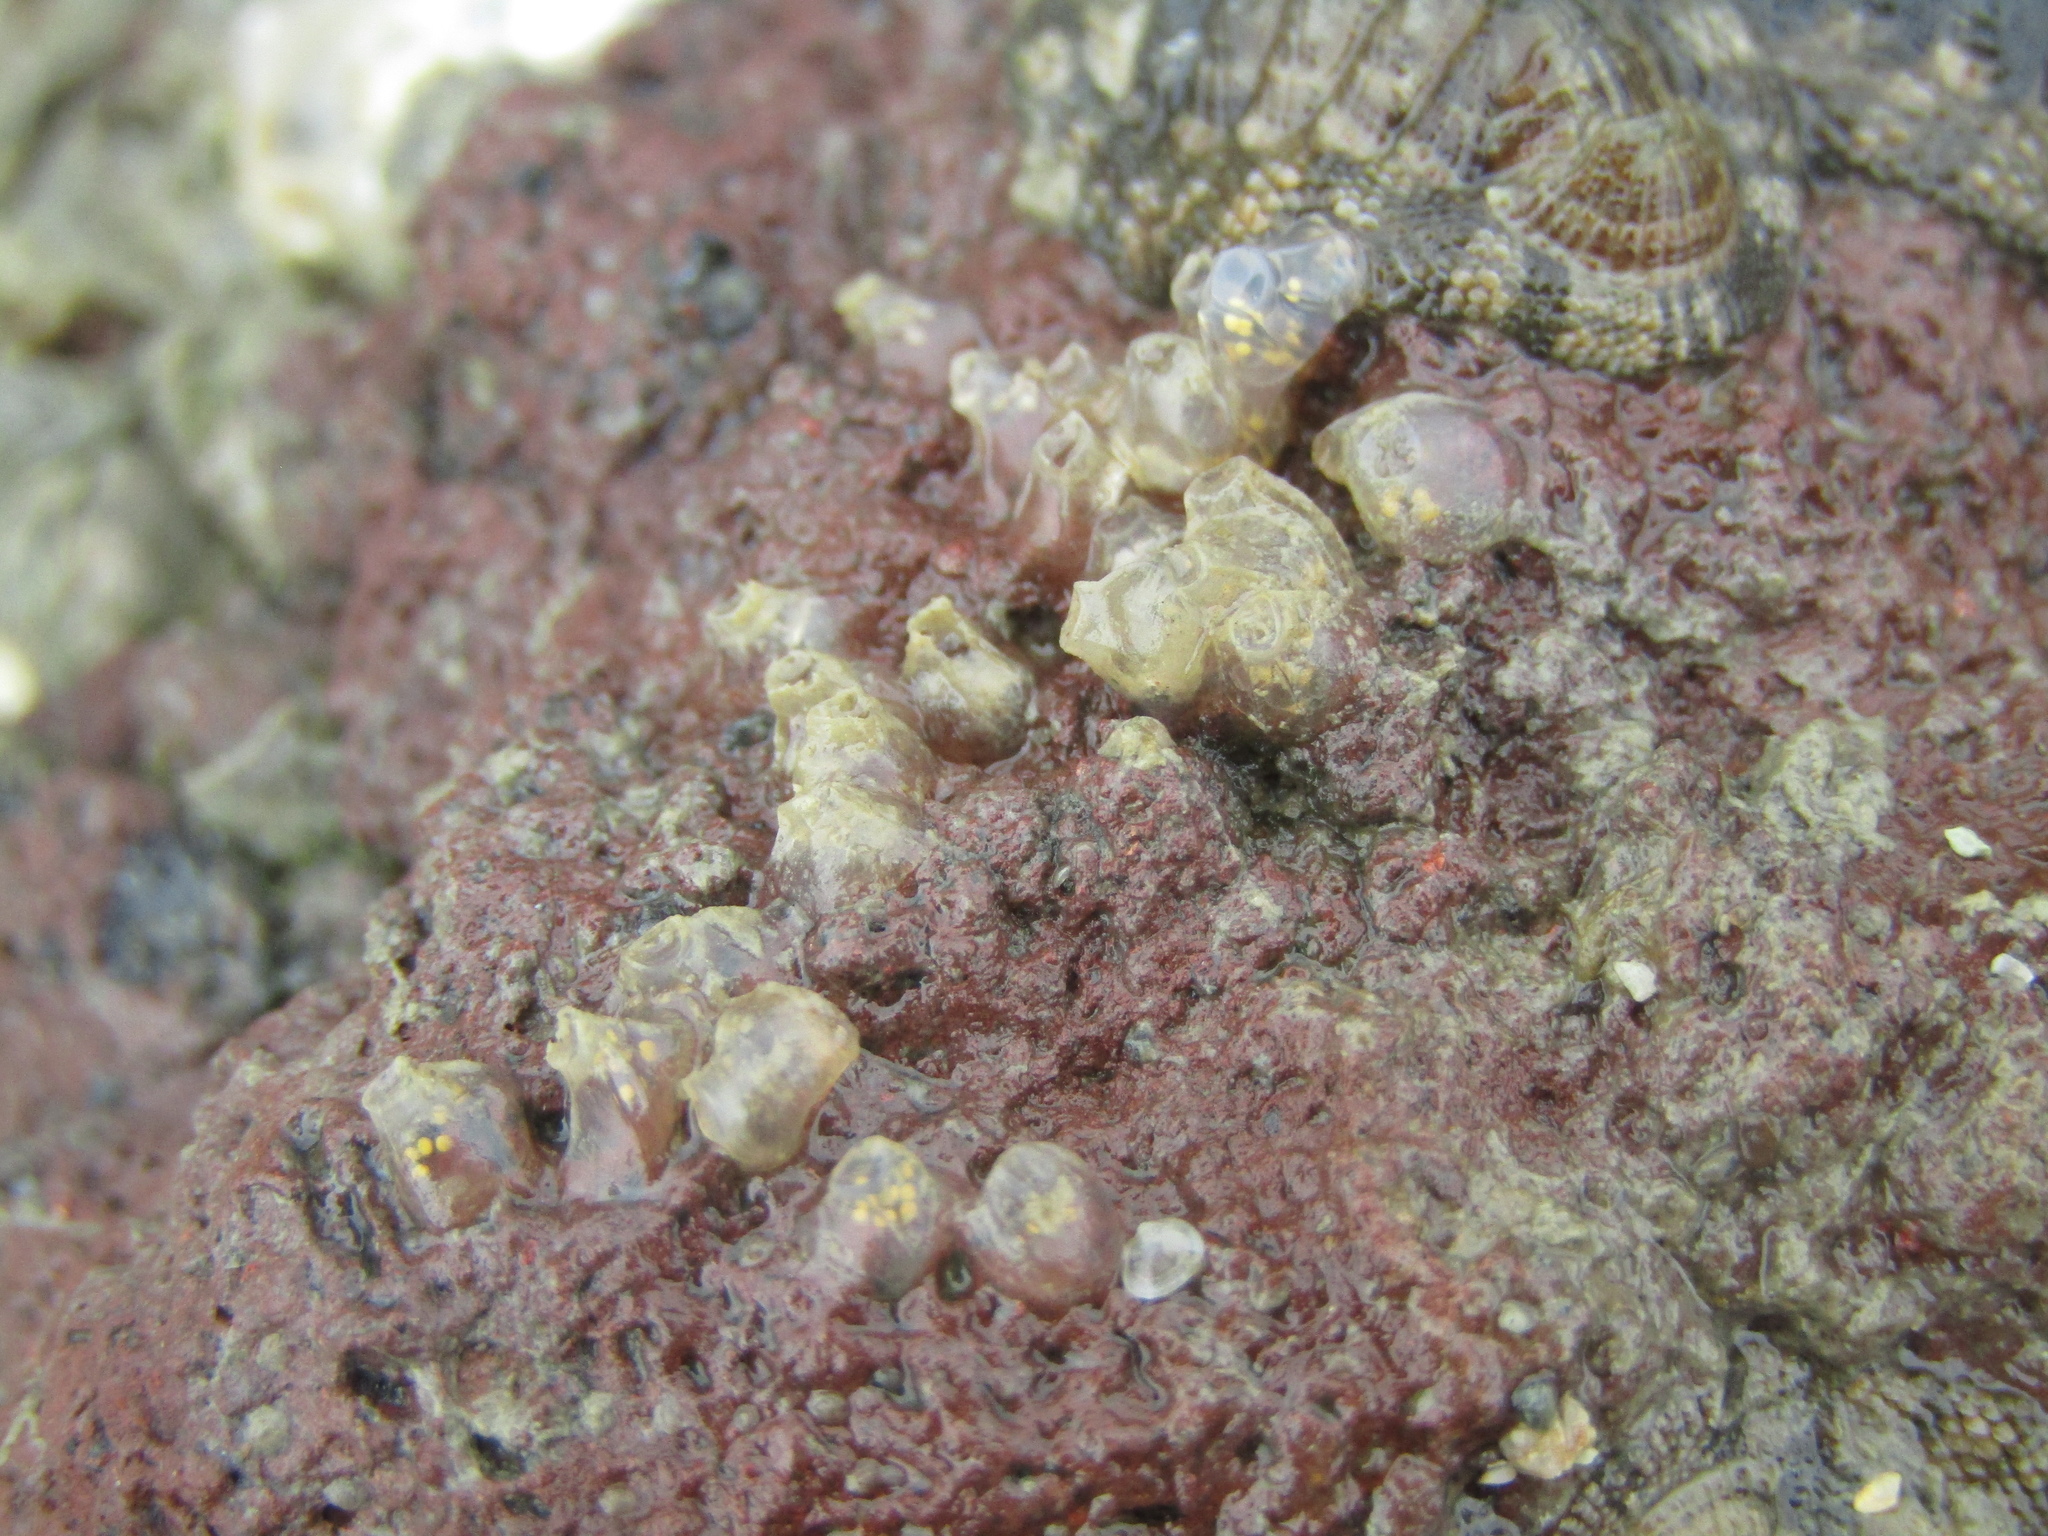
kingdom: Animalia
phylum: Mollusca
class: Gastropoda
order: Neogastropoda
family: Cominellidae
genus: Cominella
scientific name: Cominella glandiformis
